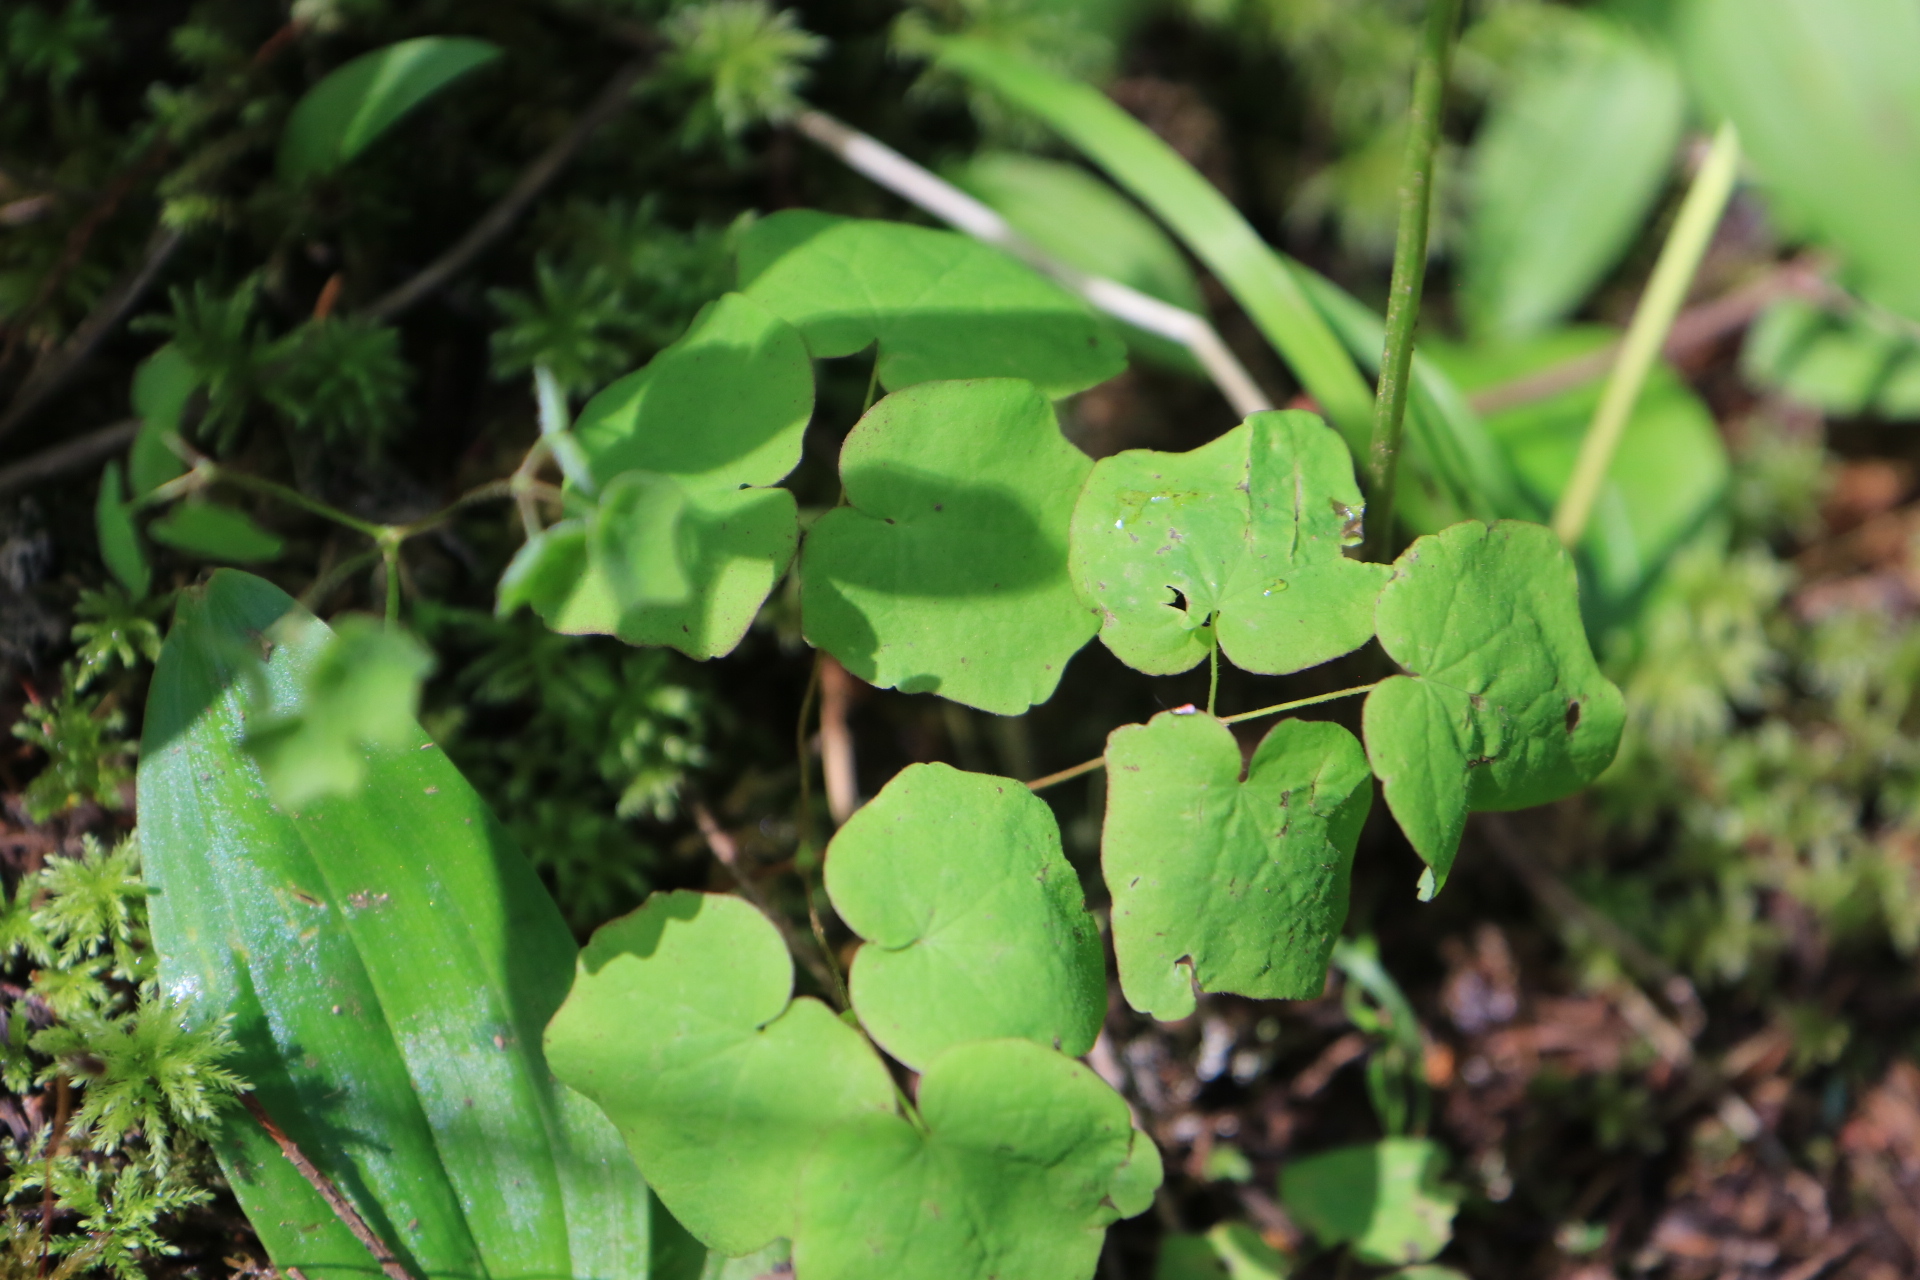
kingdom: Plantae
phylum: Tracheophyta
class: Magnoliopsida
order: Ranunculales
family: Berberidaceae
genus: Vancouveria
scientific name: Vancouveria hexandra
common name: Northern inside-out-flower
